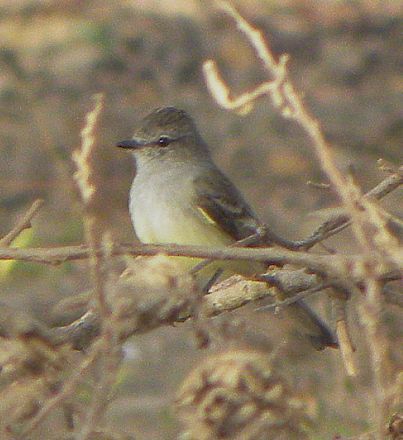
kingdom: Animalia
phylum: Chordata
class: Aves
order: Passeriformes
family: Tyrannidae
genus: Sublegatus
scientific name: Sublegatus arenarum
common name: Northern scrub-flycatcher
